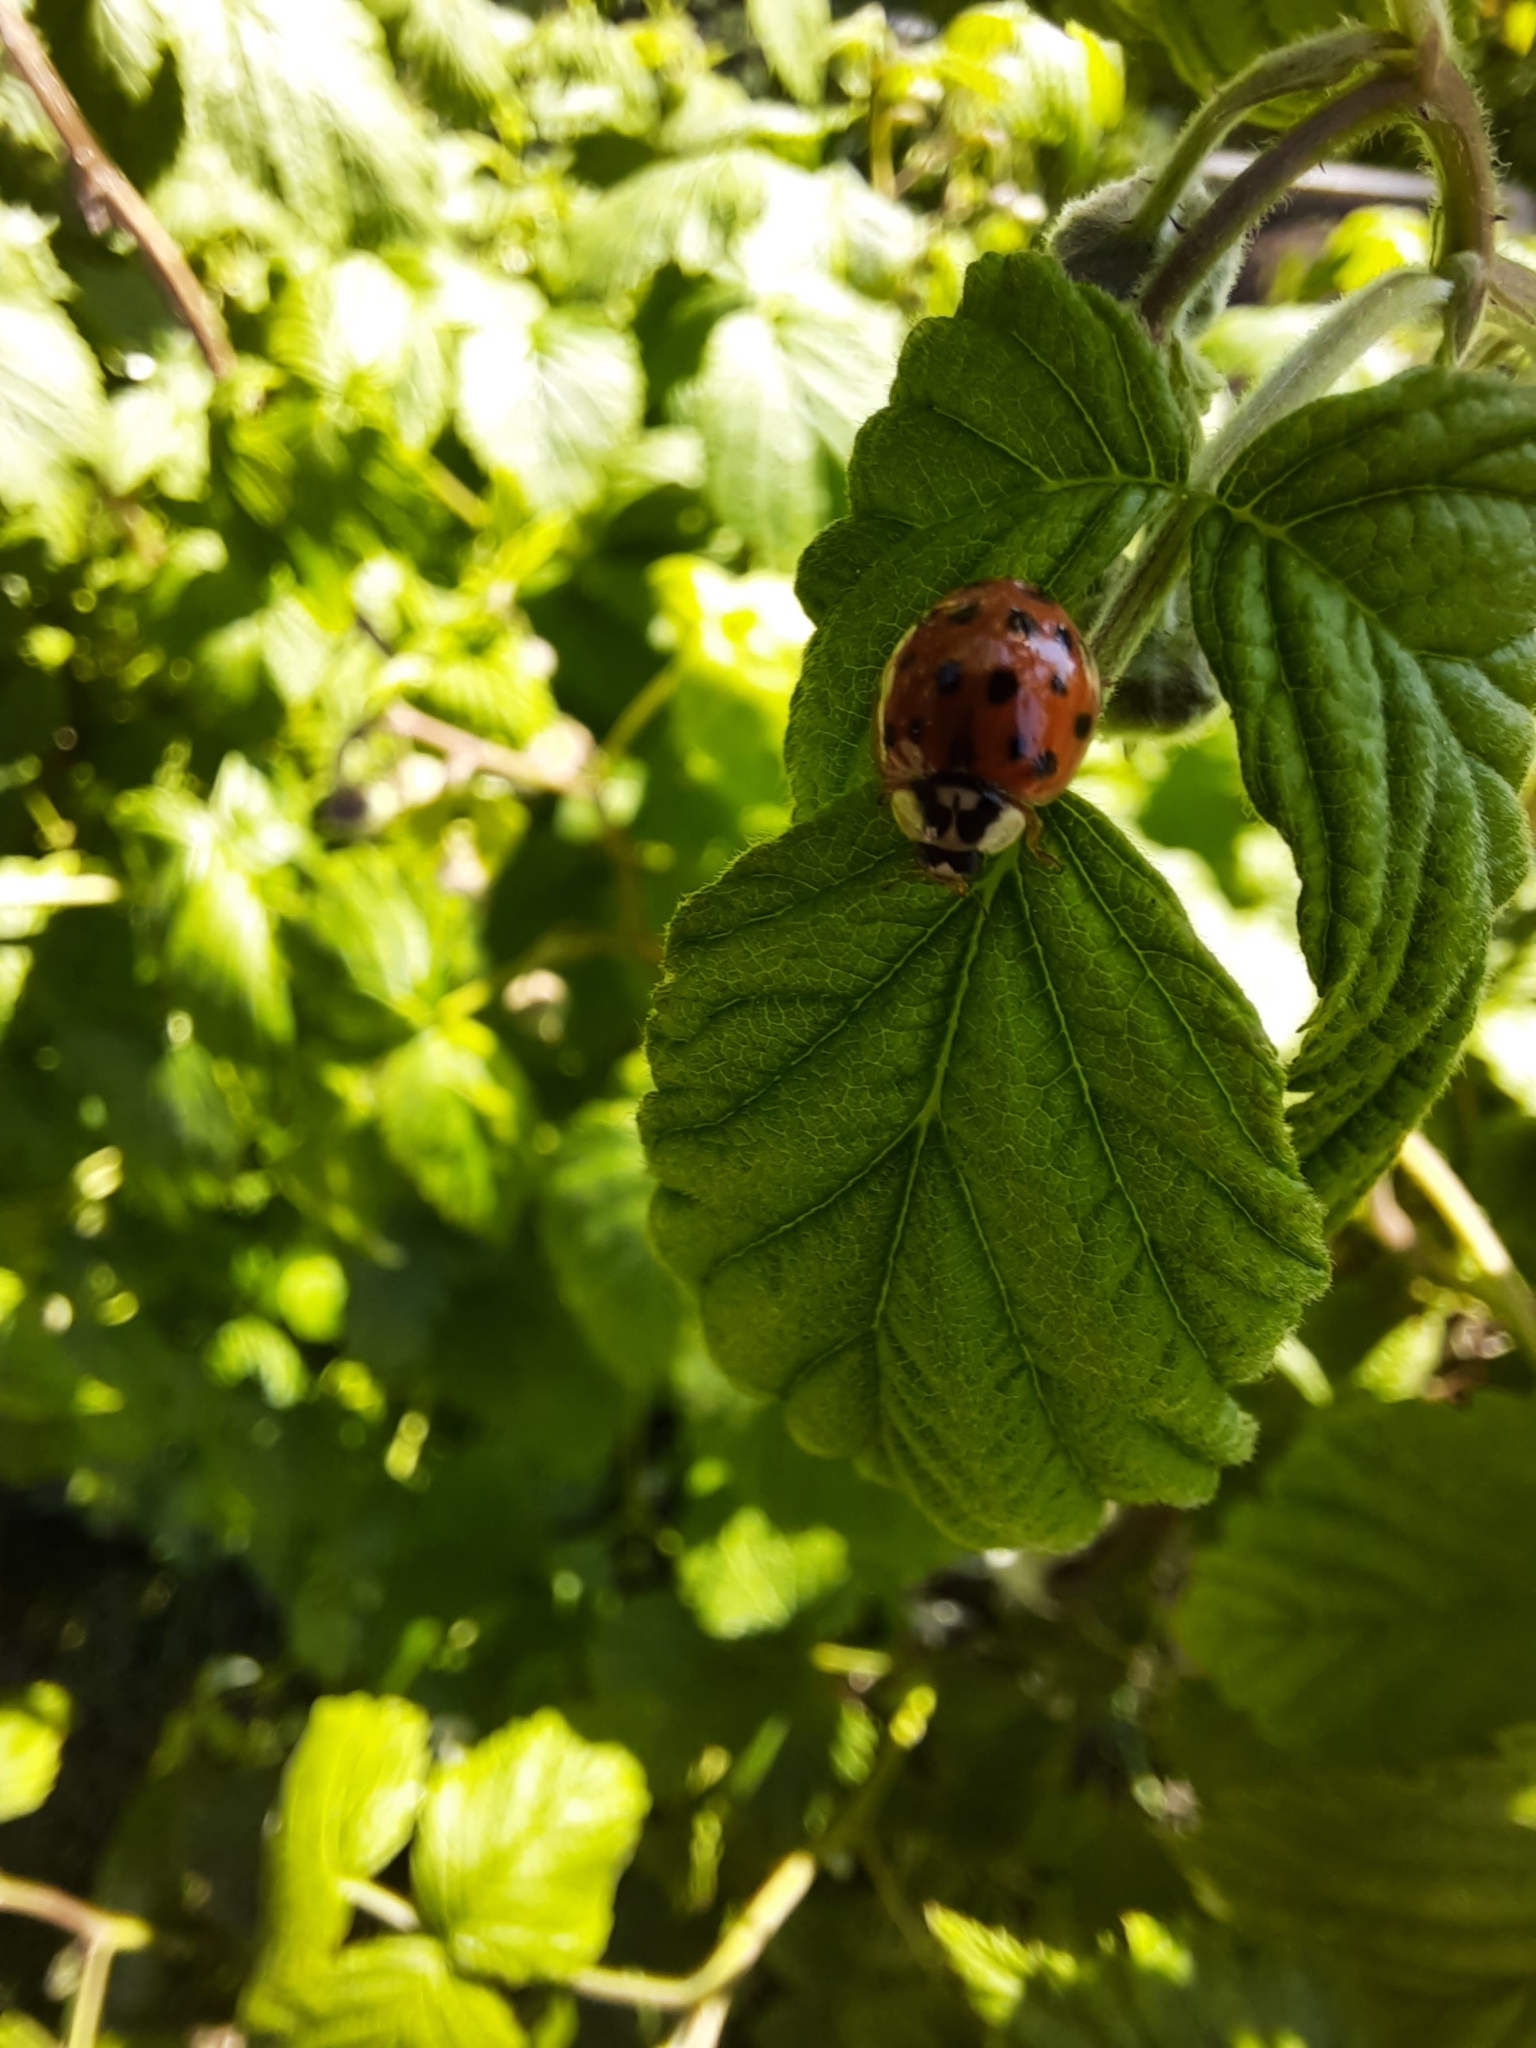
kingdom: Animalia
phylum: Arthropoda
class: Insecta
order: Coleoptera
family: Coccinellidae
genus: Harmonia
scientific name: Harmonia axyridis
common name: Harlequin ladybird
